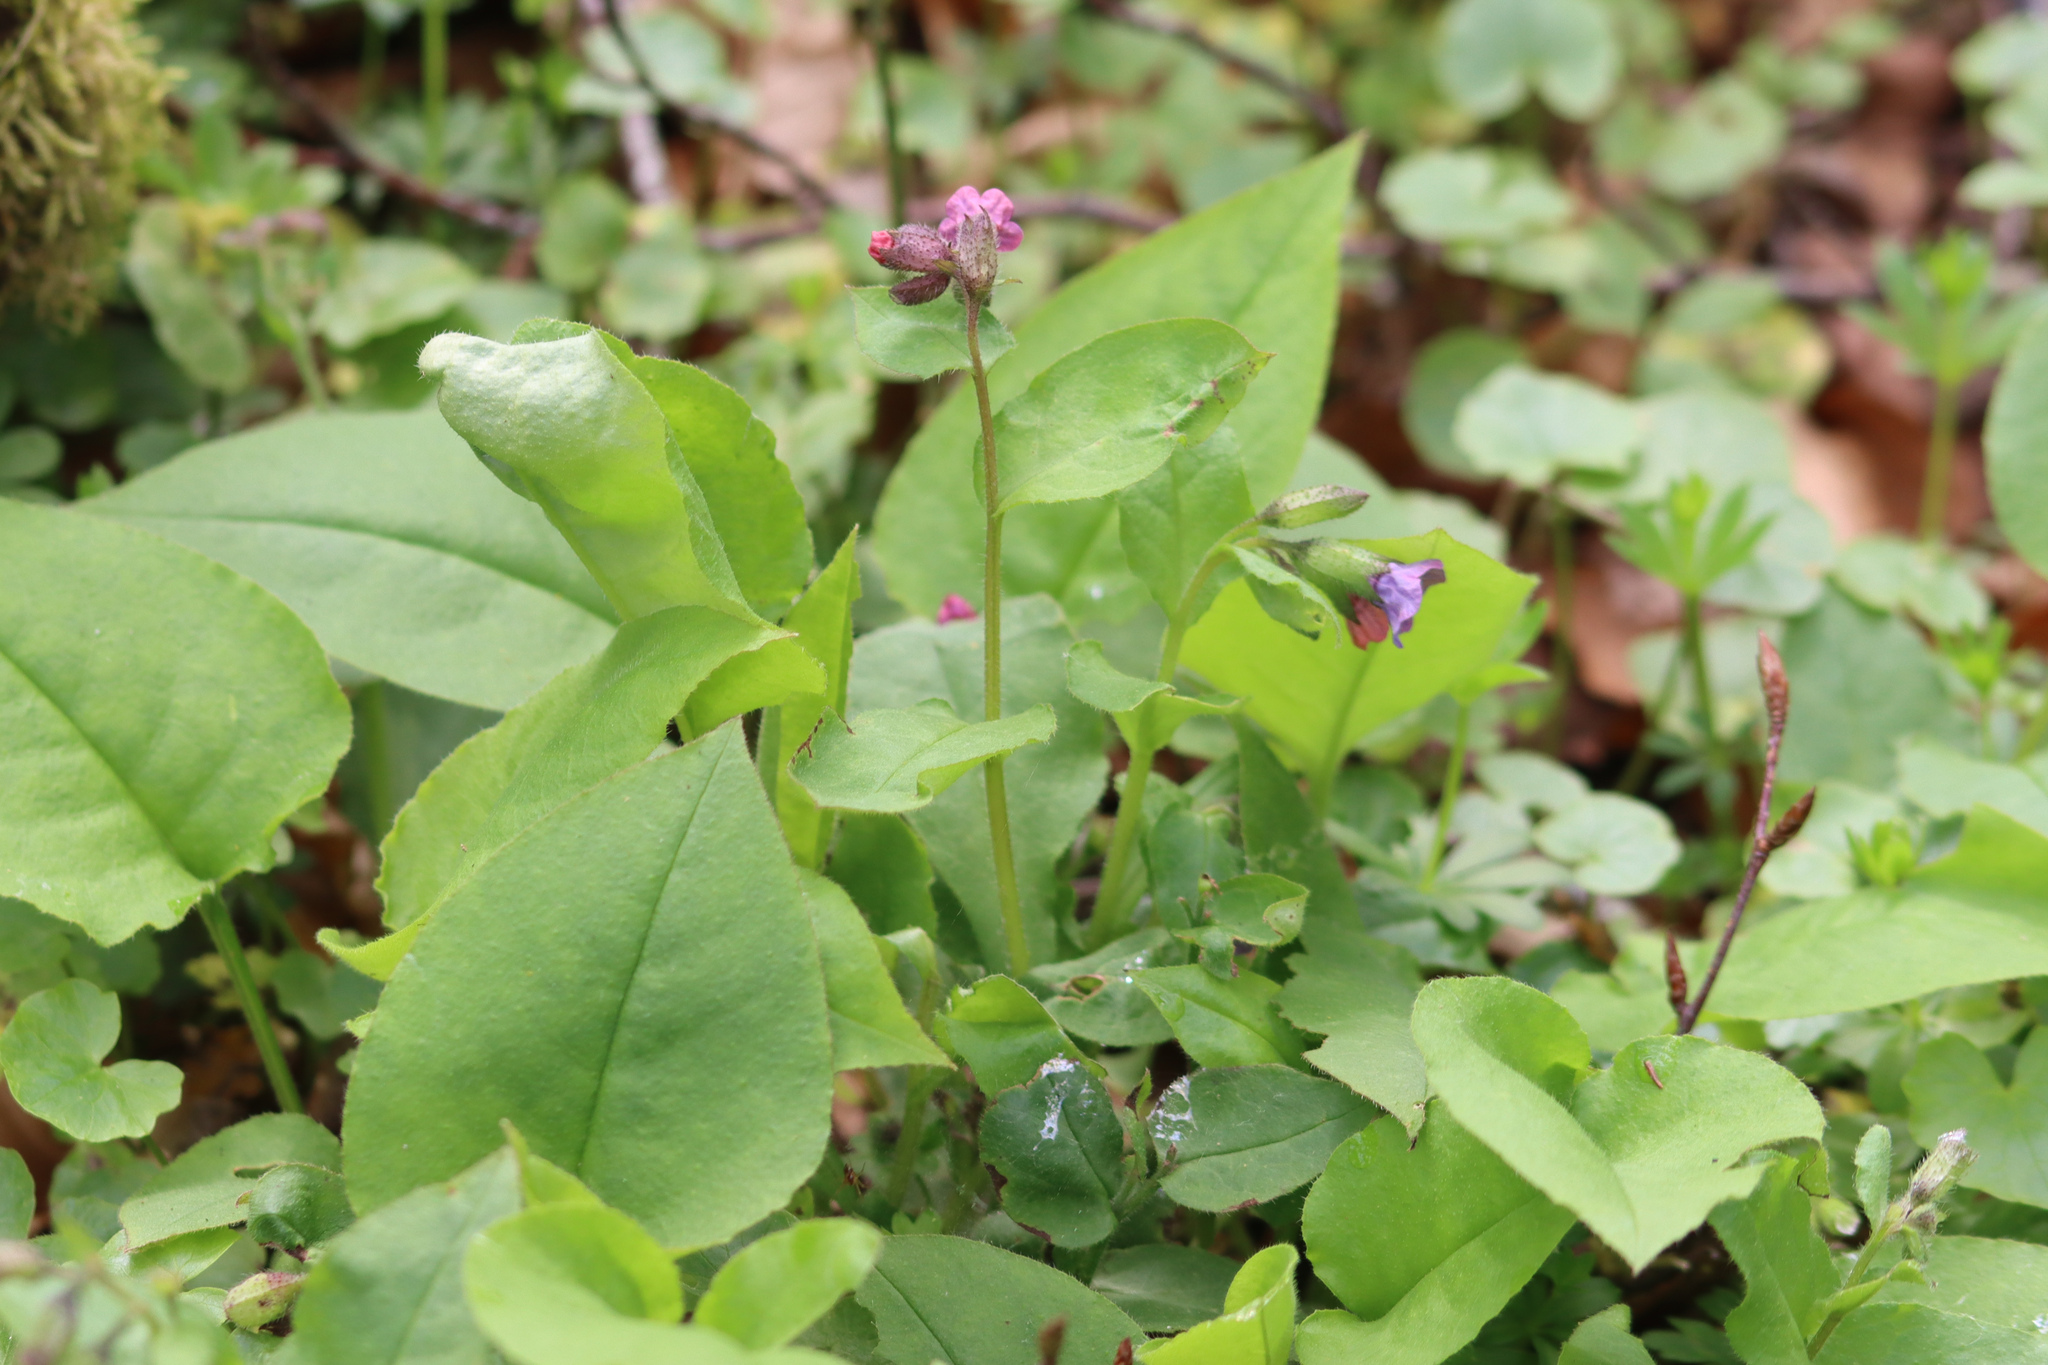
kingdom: Plantae
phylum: Tracheophyta
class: Magnoliopsida
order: Boraginales
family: Boraginaceae
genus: Pulmonaria
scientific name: Pulmonaria obscura
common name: Suffolk lungwort
